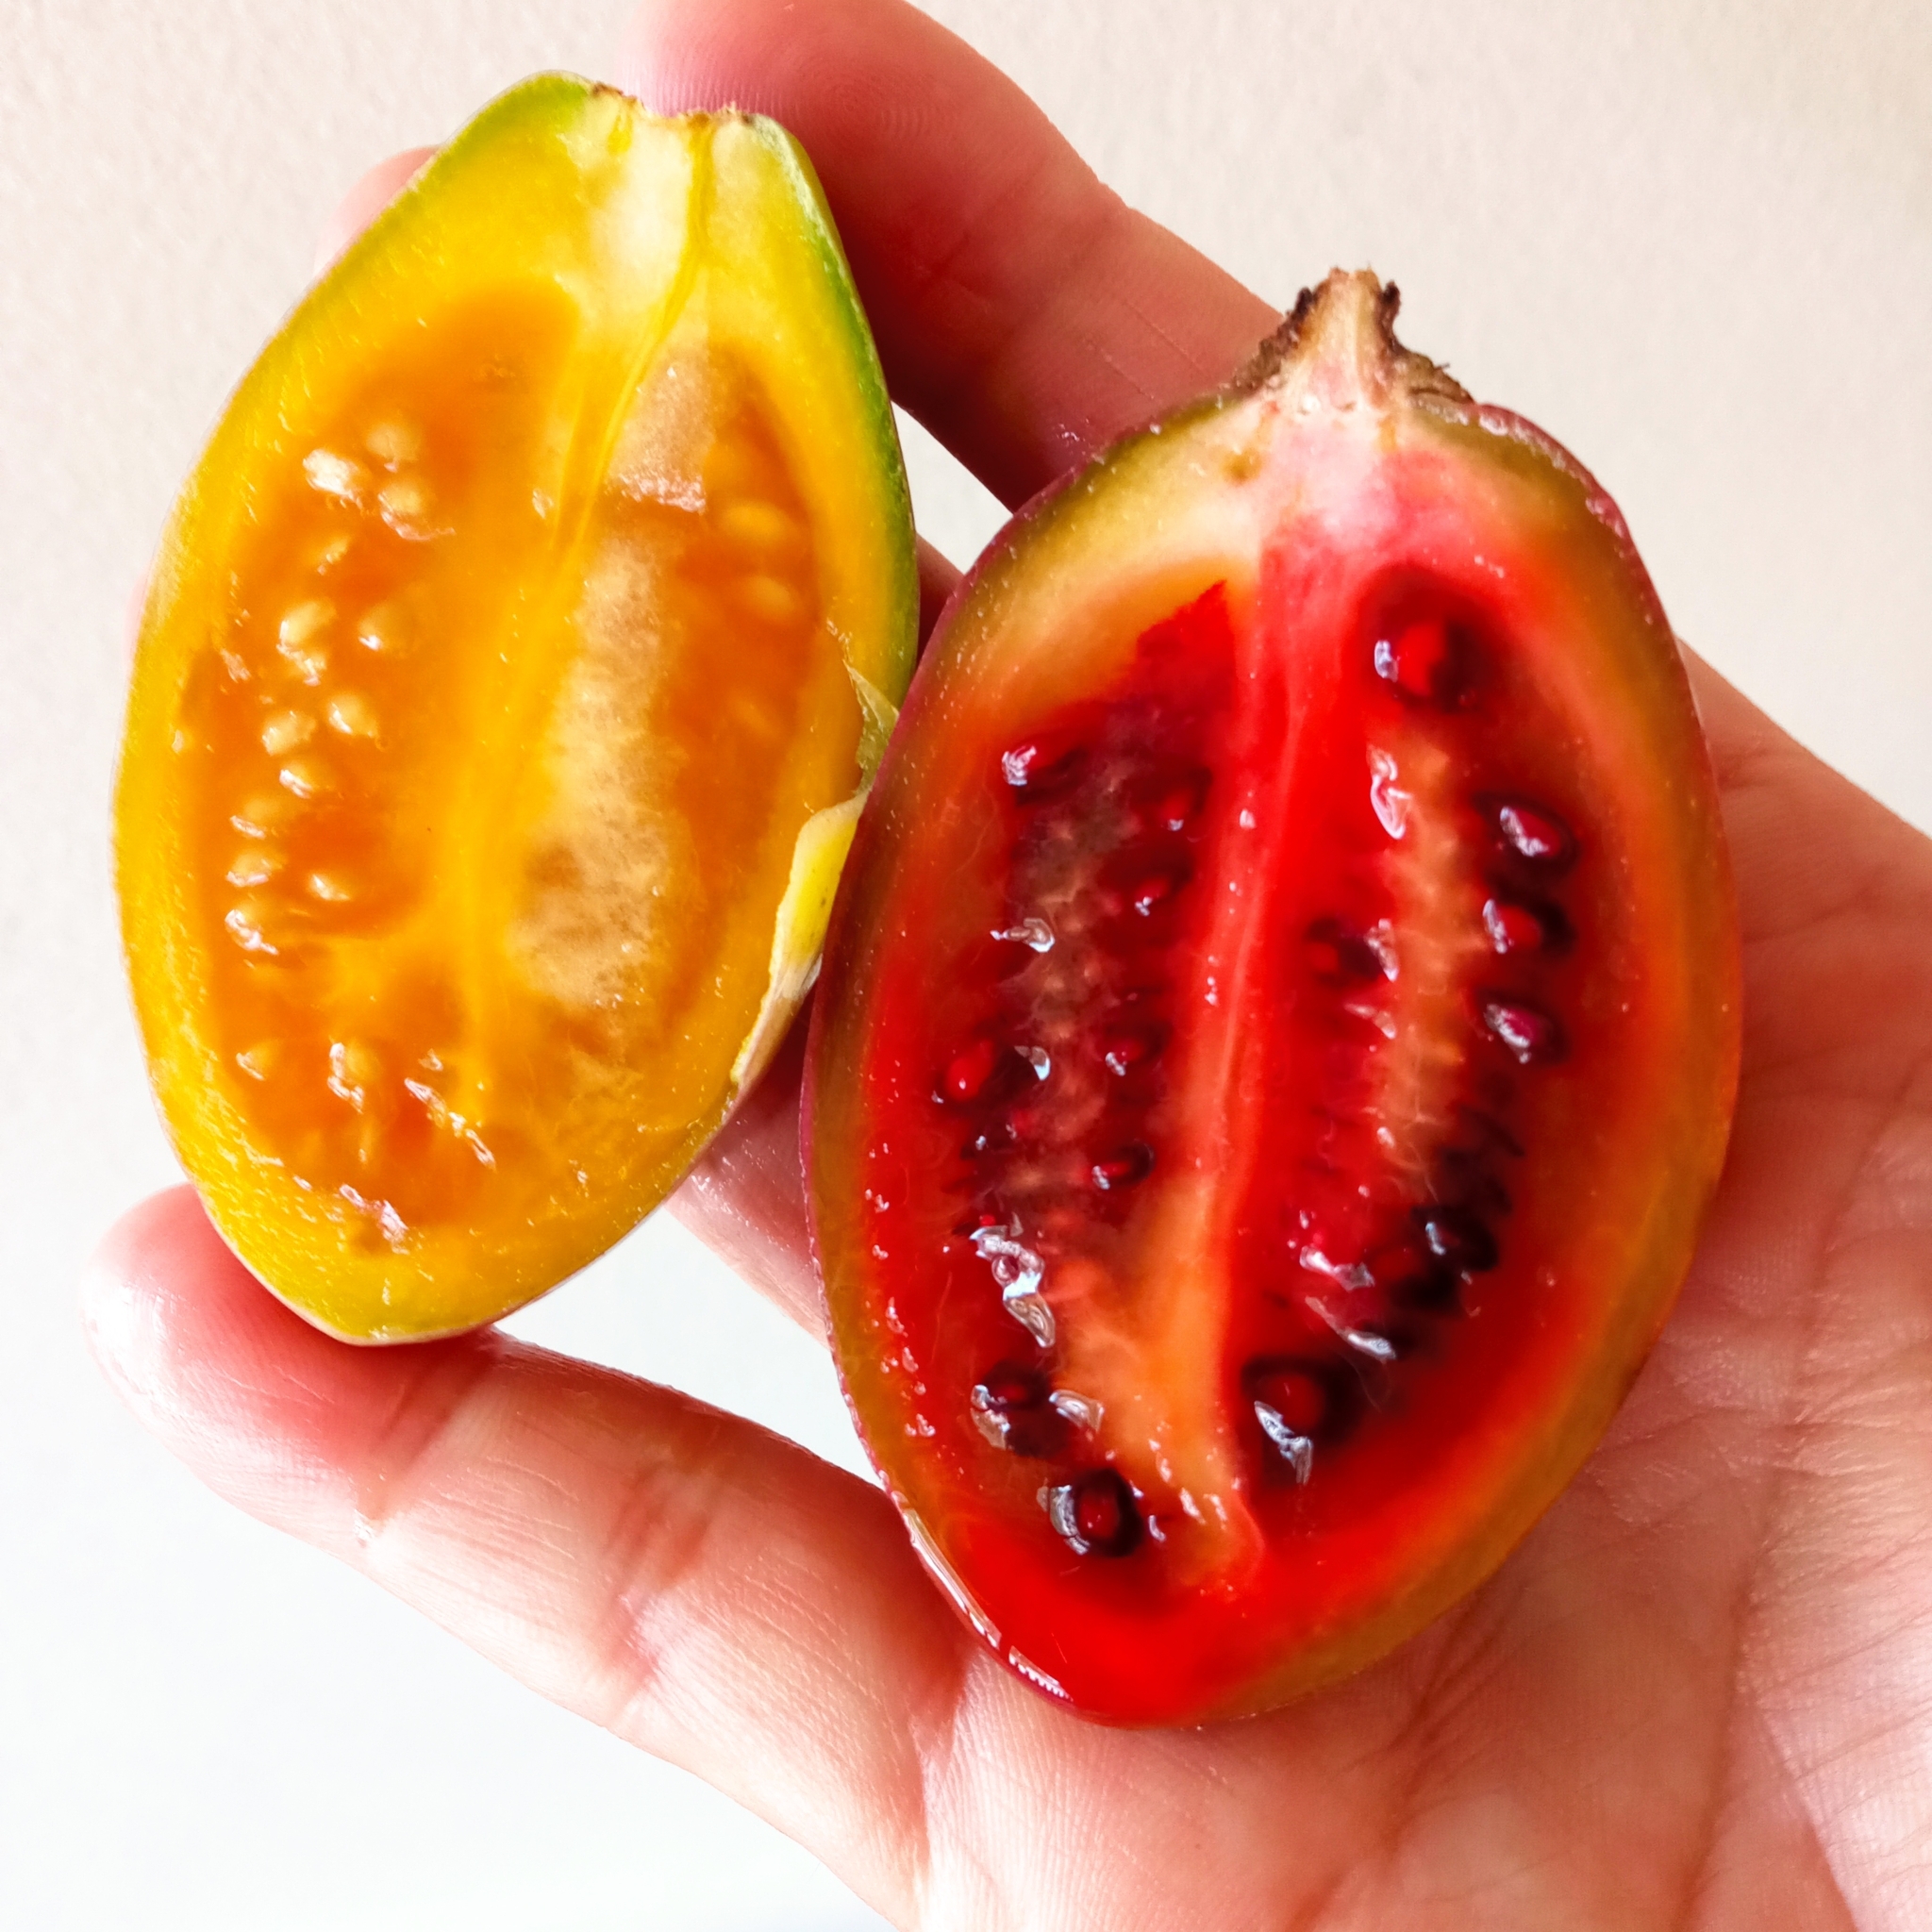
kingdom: Plantae
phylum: Tracheophyta
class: Magnoliopsida
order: Solanales
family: Solanaceae
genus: Solanum
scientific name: Solanum betaceum
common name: Tamarillo
